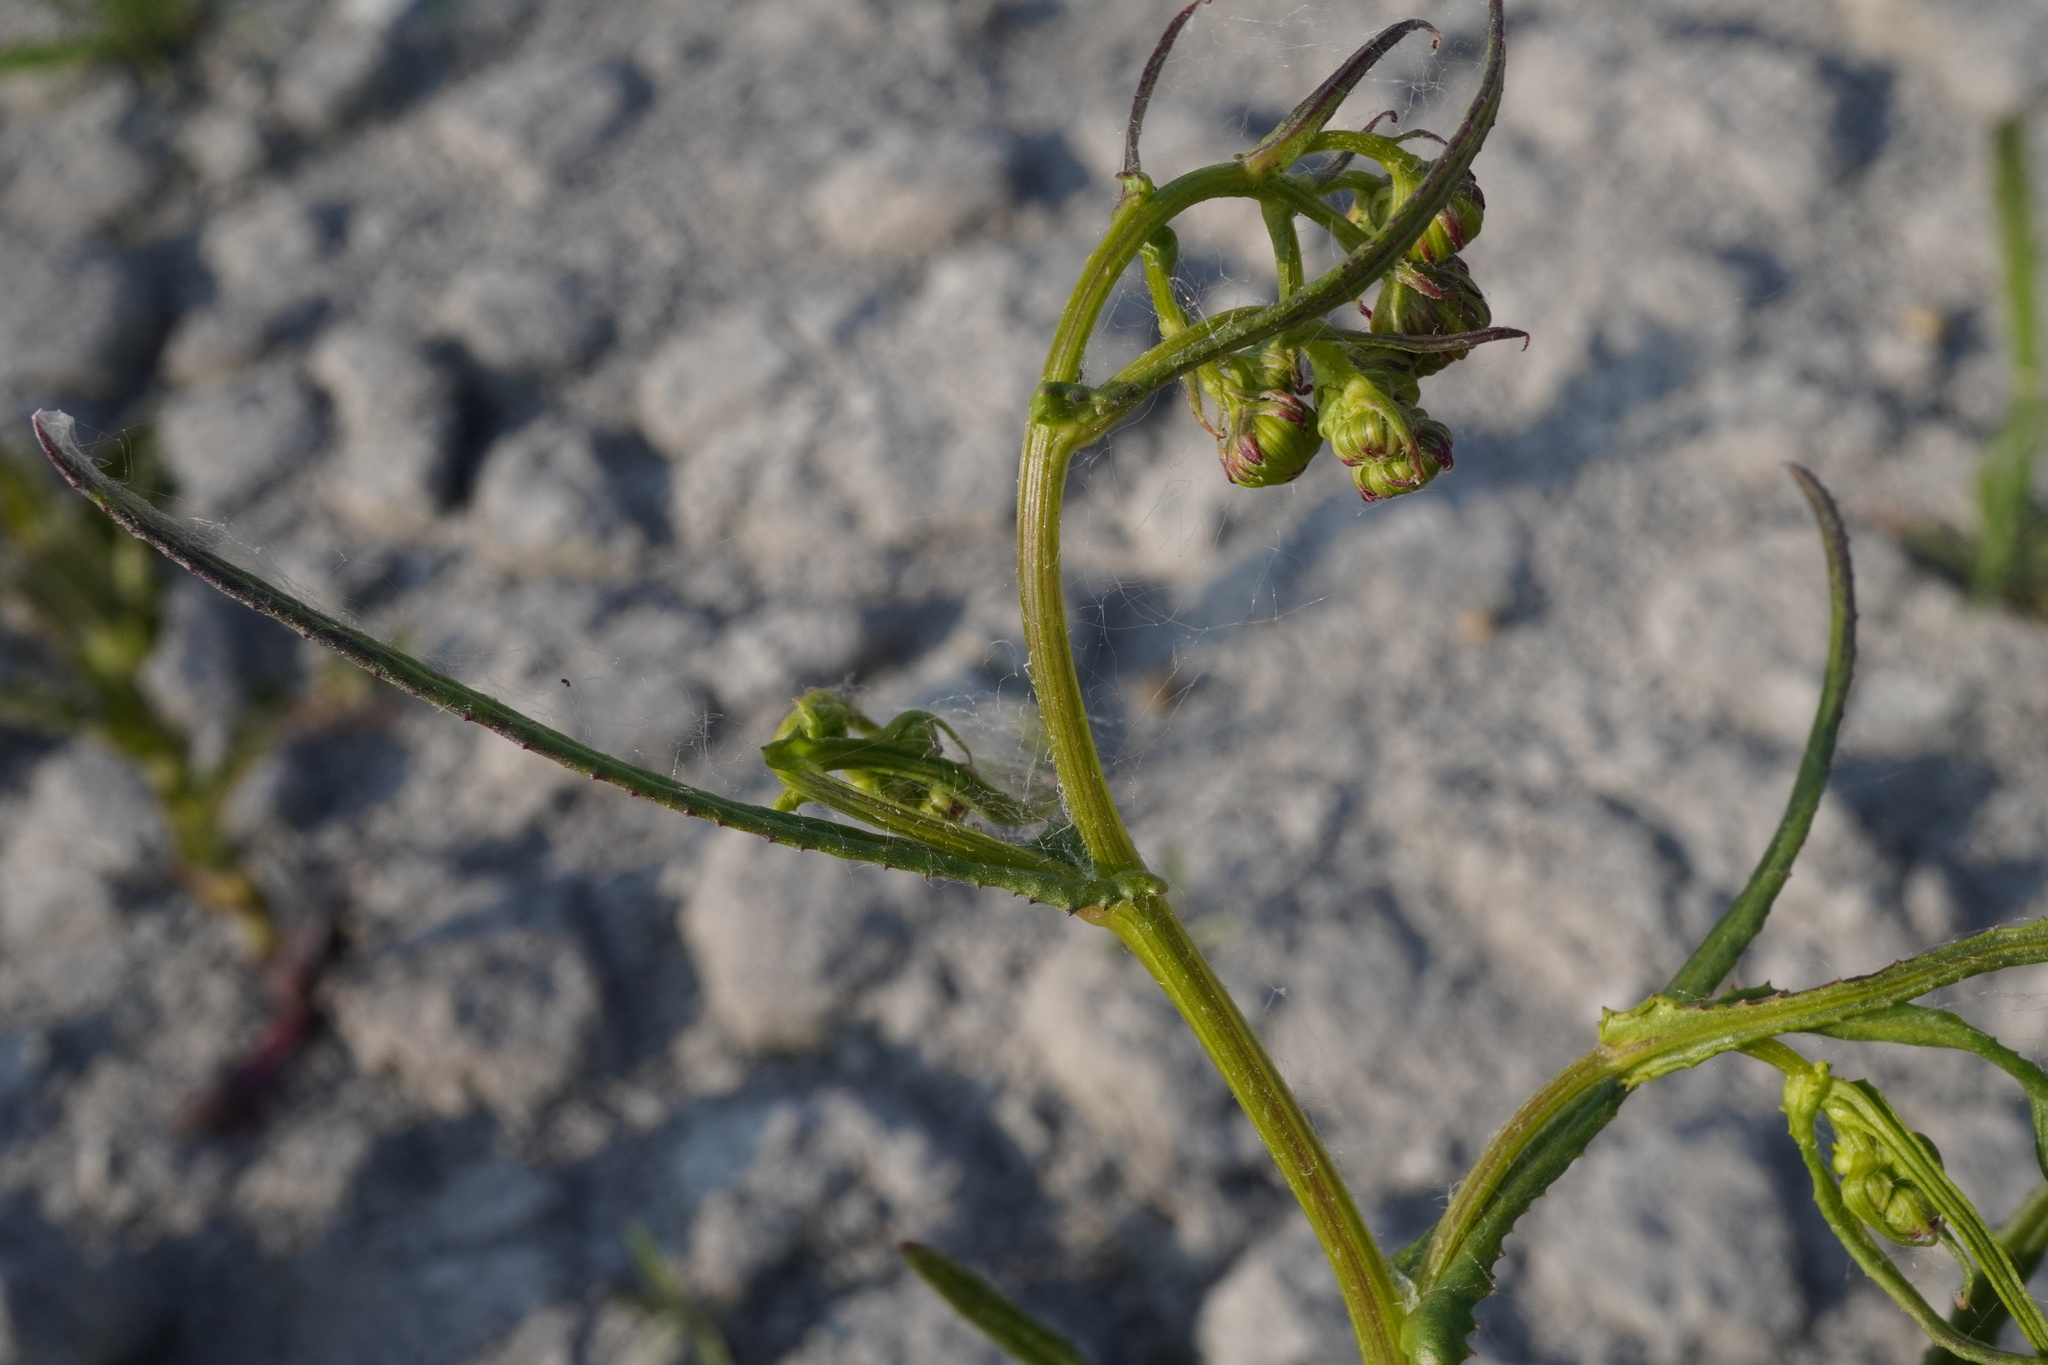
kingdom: Plantae
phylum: Tracheophyta
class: Magnoliopsida
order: Asterales
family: Asteraceae
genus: Senecio
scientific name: Senecio inaequidens
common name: Narrow-leaved ragwort
